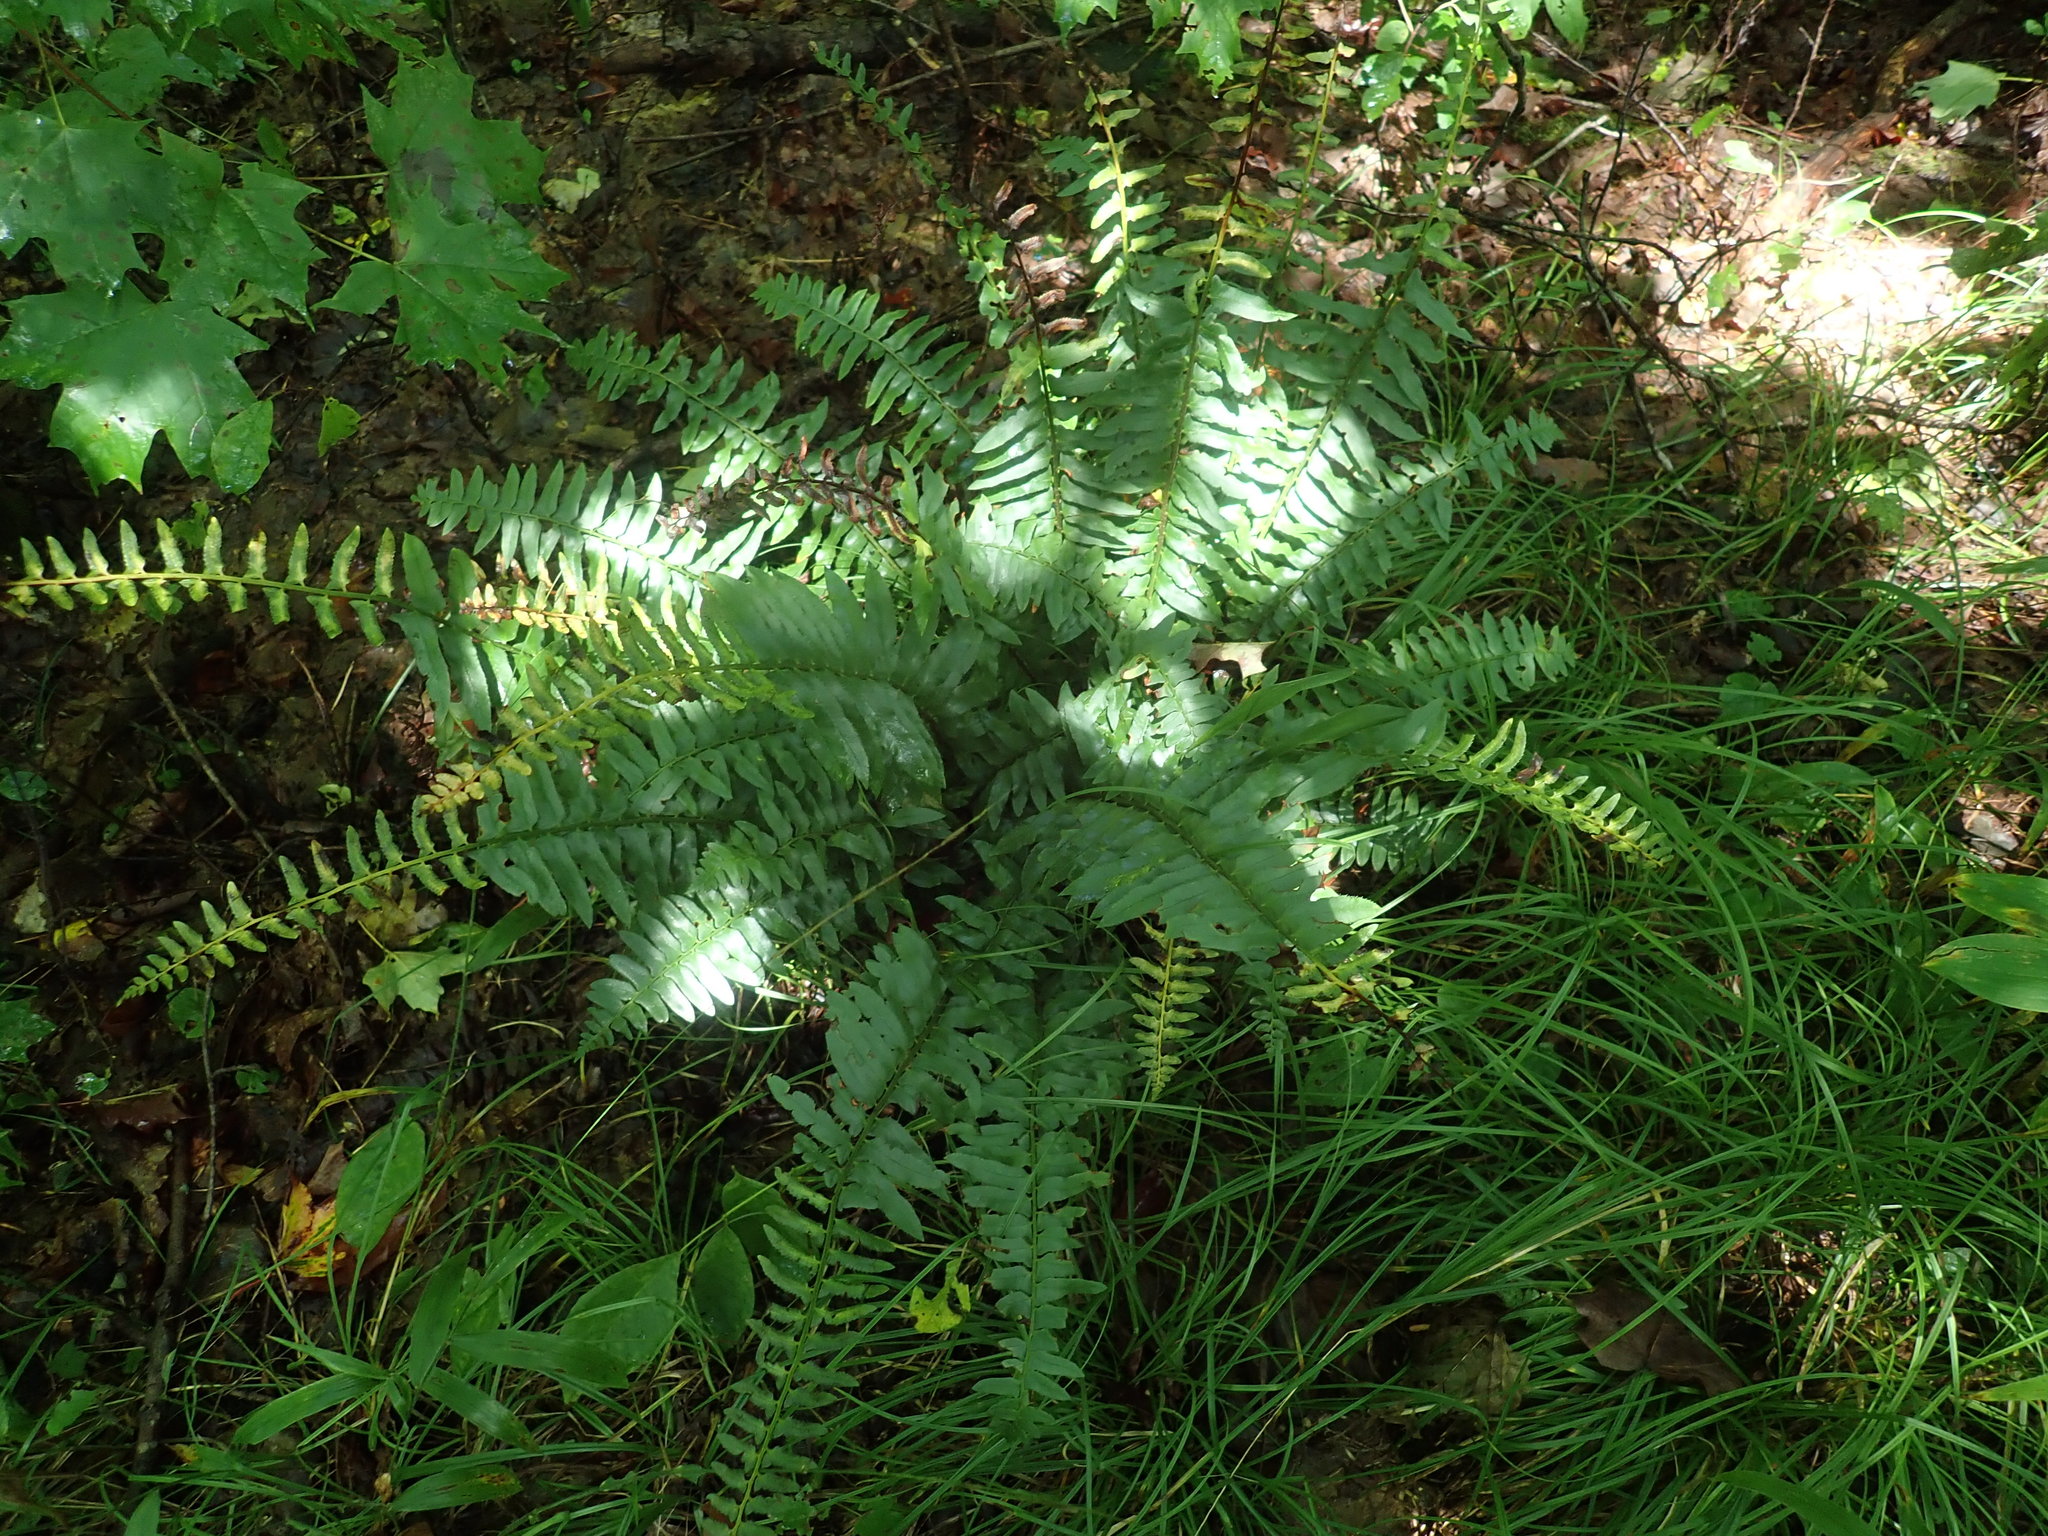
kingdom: Plantae
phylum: Tracheophyta
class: Polypodiopsida
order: Polypodiales
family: Dryopteridaceae
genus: Polystichum
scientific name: Polystichum acrostichoides
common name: Christmas fern
